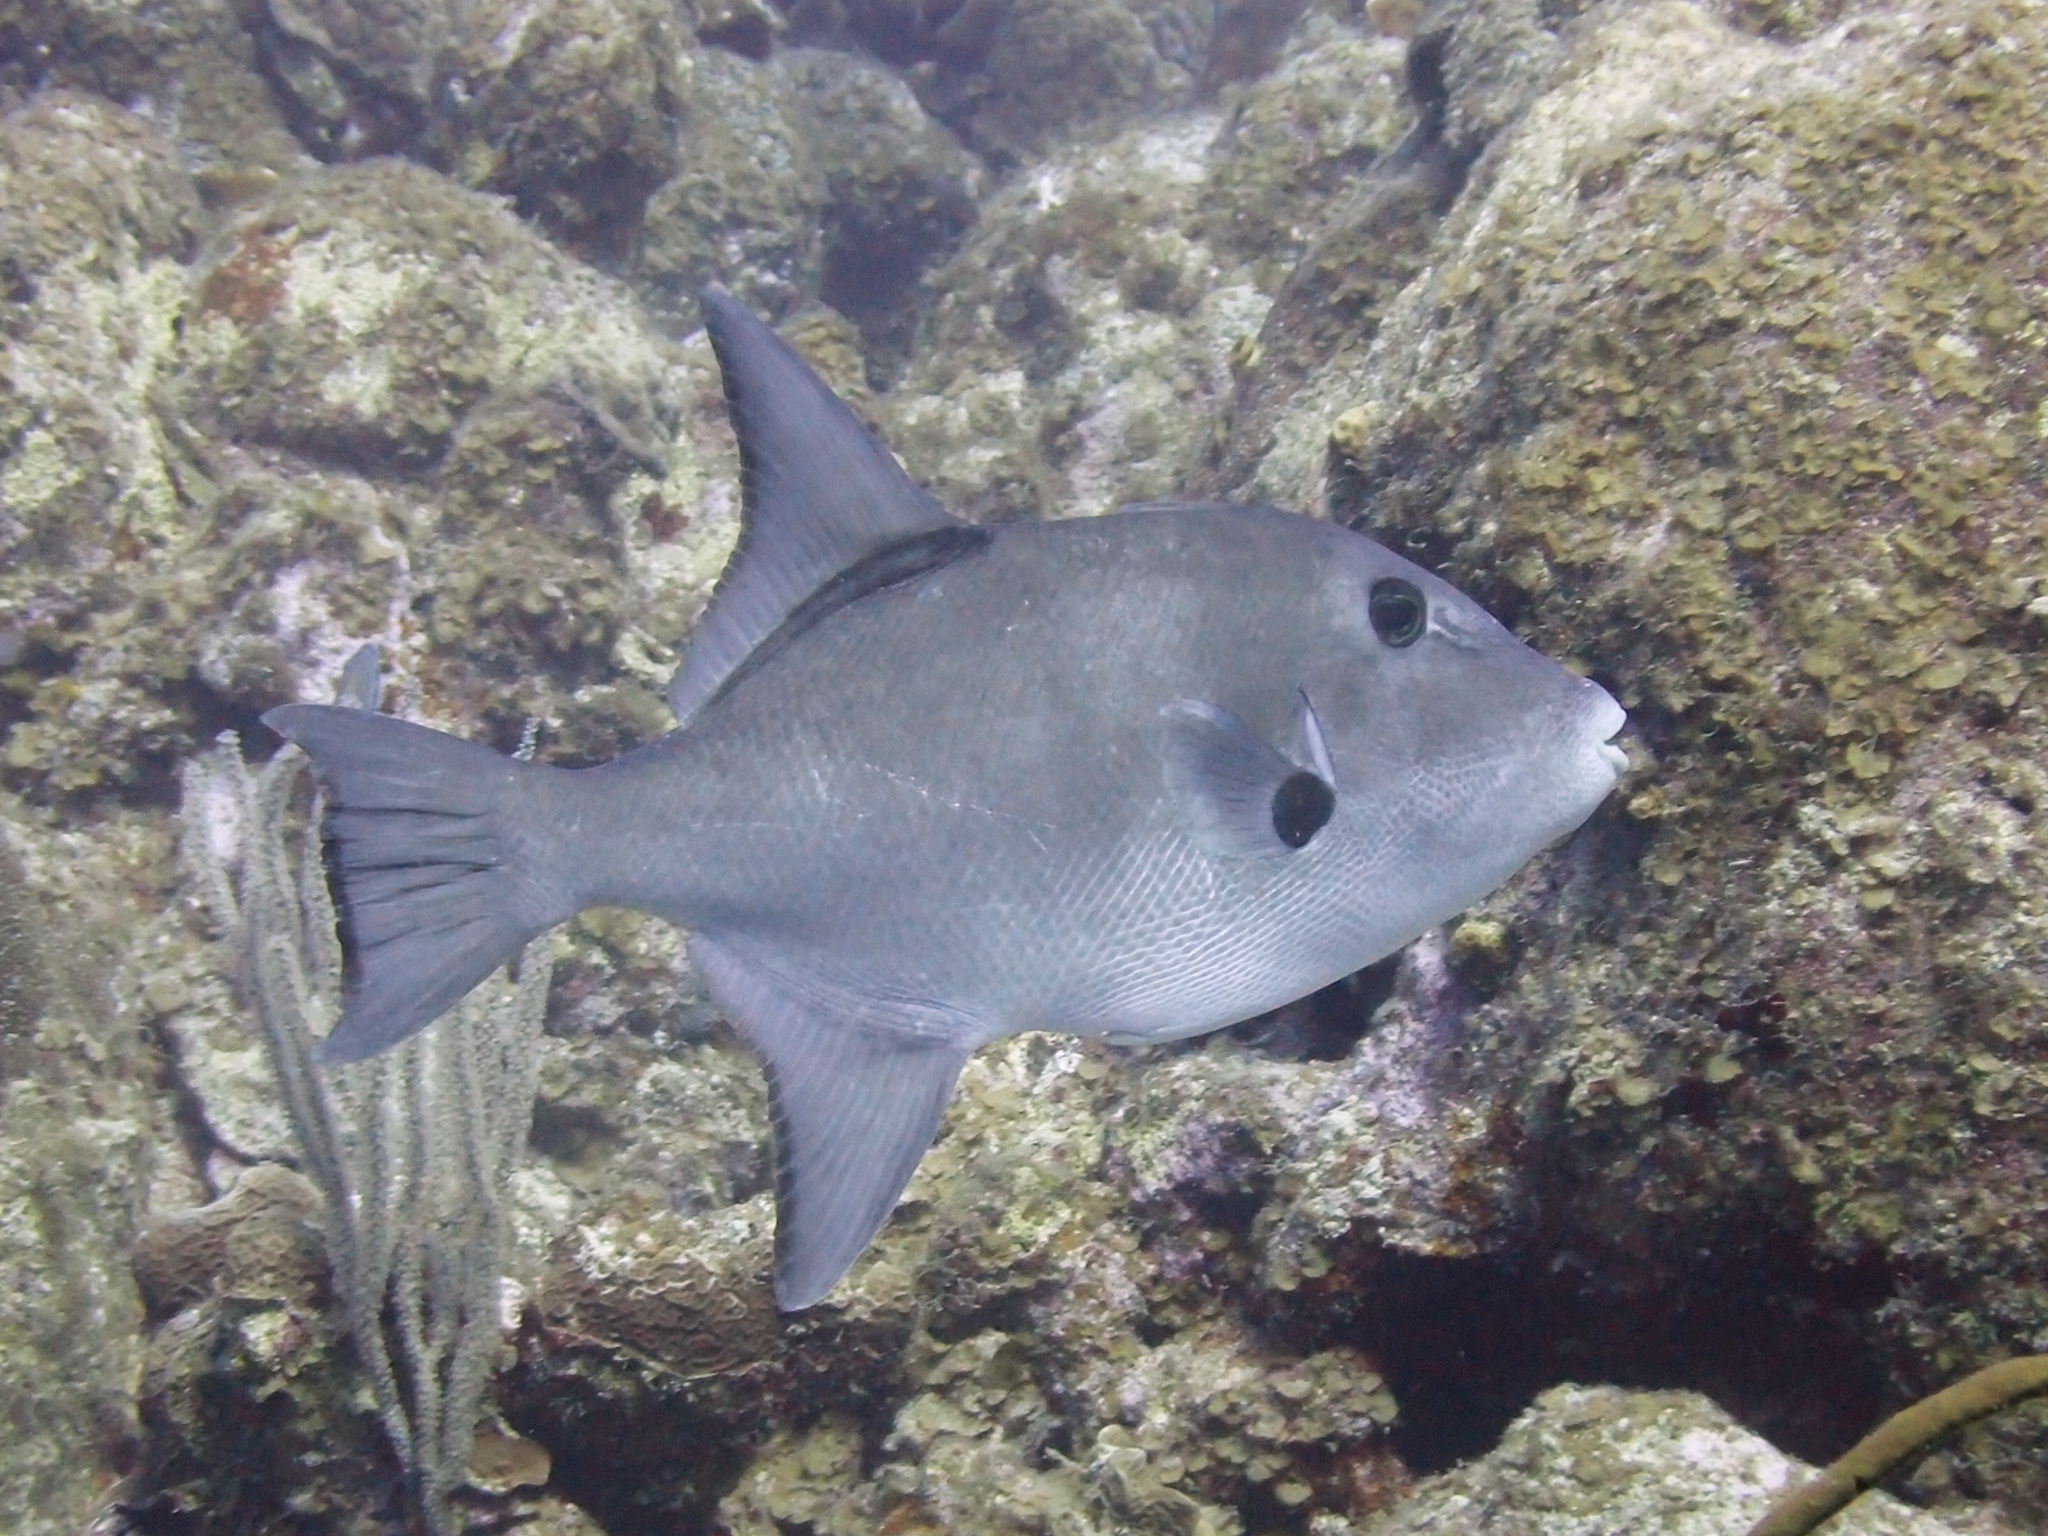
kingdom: Animalia
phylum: Chordata
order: Tetraodontiformes
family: Balistidae
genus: Canthidermis
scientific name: Canthidermis sufflamen
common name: Ocean triggerfish
